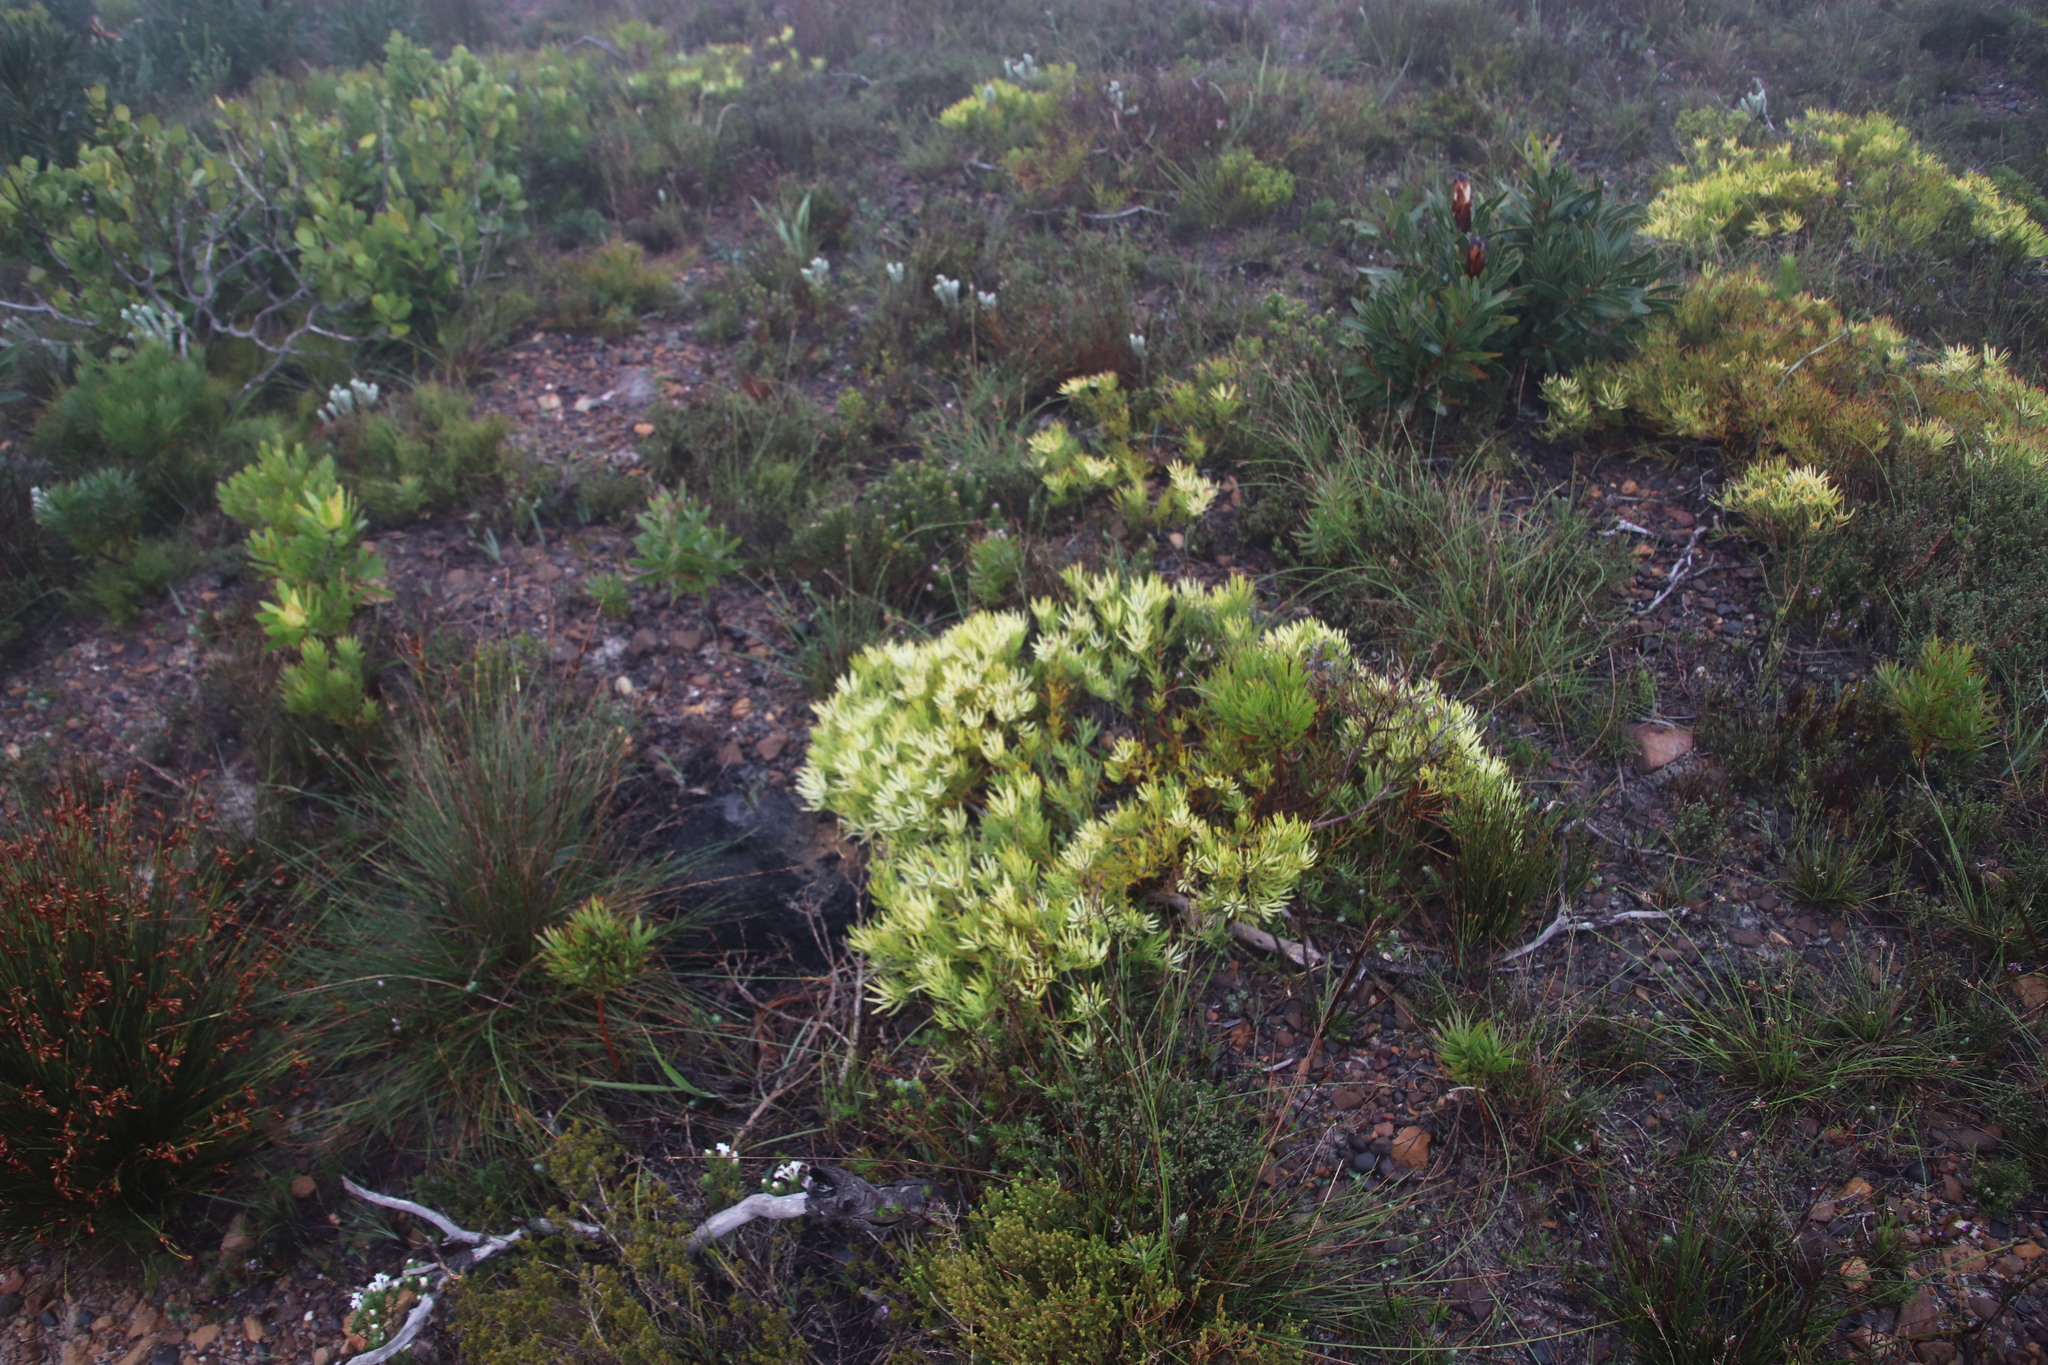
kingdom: Plantae
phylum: Tracheophyta
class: Magnoliopsida
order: Proteales
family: Proteaceae
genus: Leucadendron
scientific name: Leucadendron salignum
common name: Common sunshine conebush
